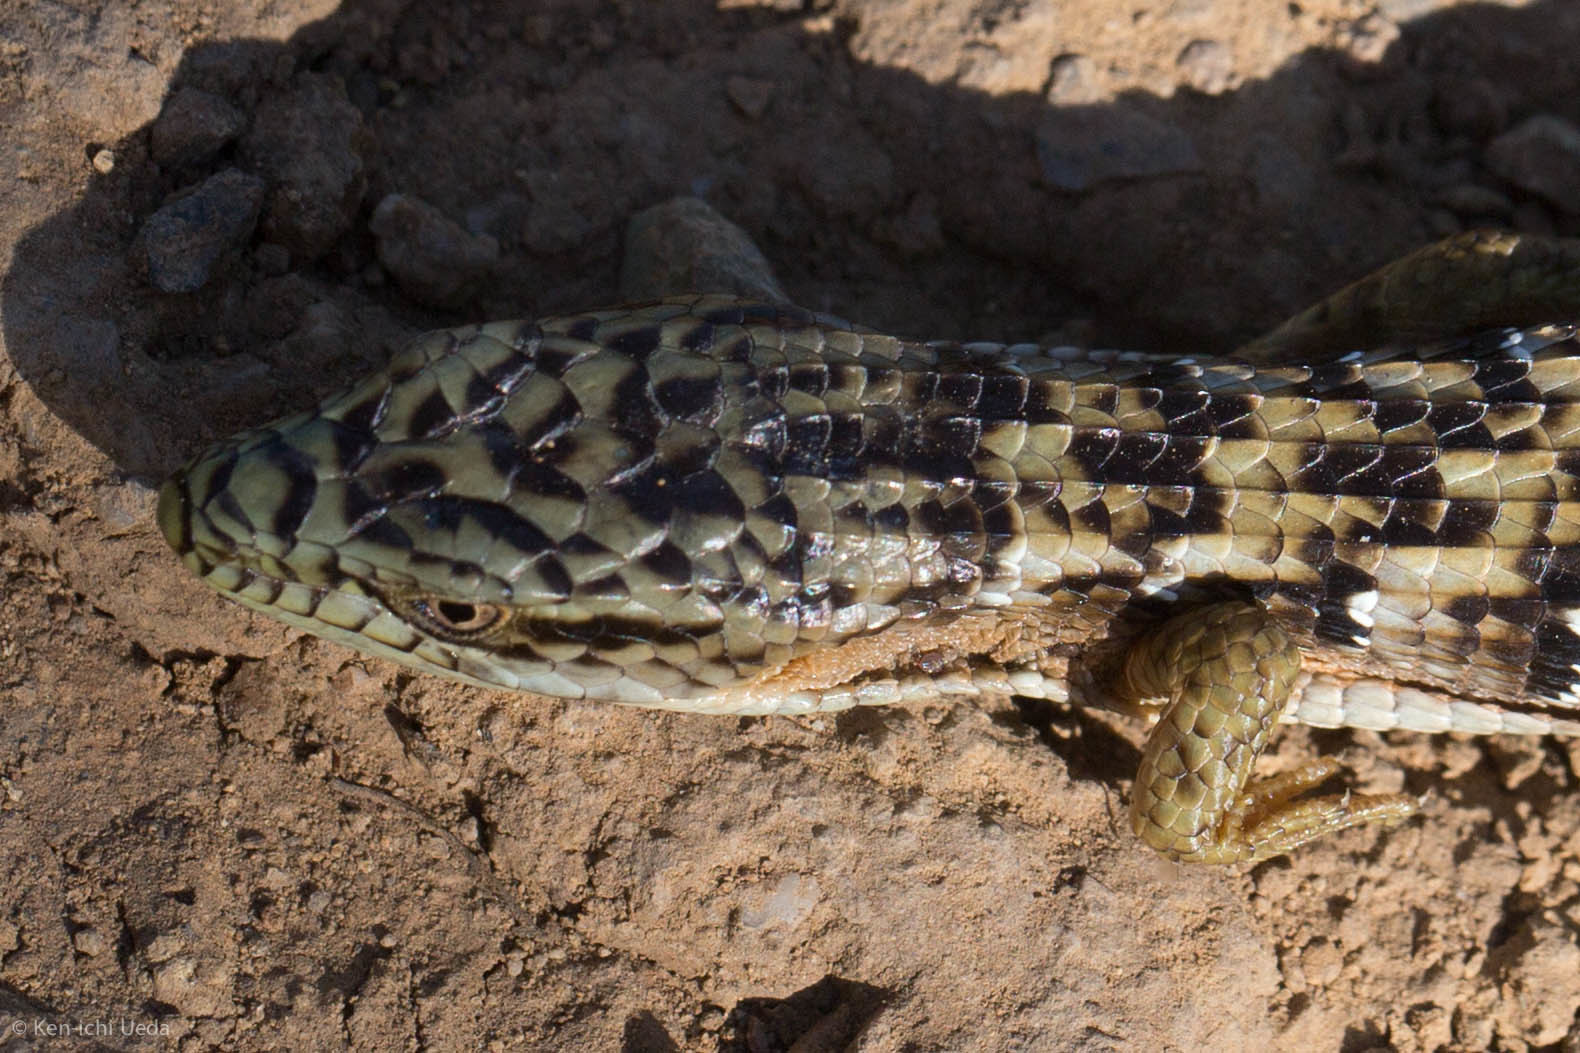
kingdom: Animalia
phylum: Chordata
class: Squamata
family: Anguidae
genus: Elgaria
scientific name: Elgaria multicarinata
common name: Southern alligator lizard
